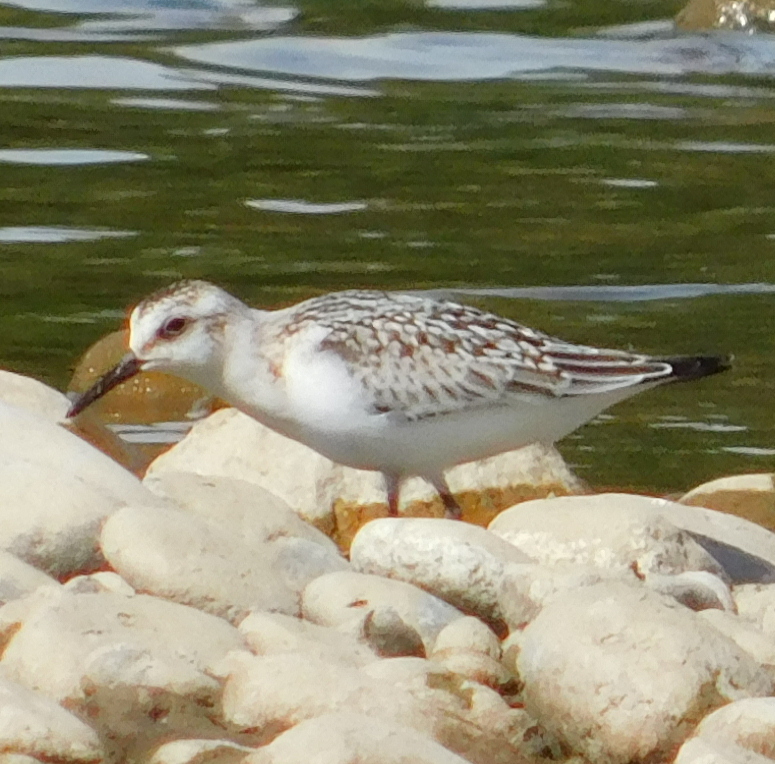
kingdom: Animalia
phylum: Chordata
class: Aves
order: Charadriiformes
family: Scolopacidae
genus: Calidris
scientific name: Calidris alba
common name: Sanderling
